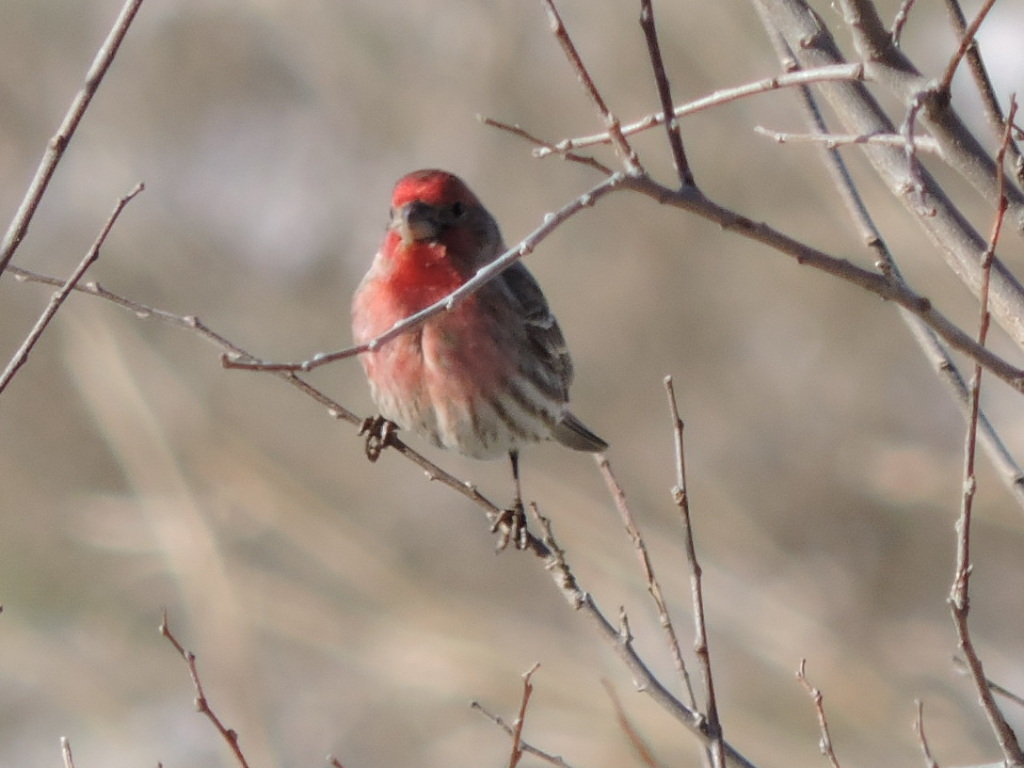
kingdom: Animalia
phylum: Chordata
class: Aves
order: Passeriformes
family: Fringillidae
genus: Haemorhous
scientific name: Haemorhous mexicanus
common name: House finch
